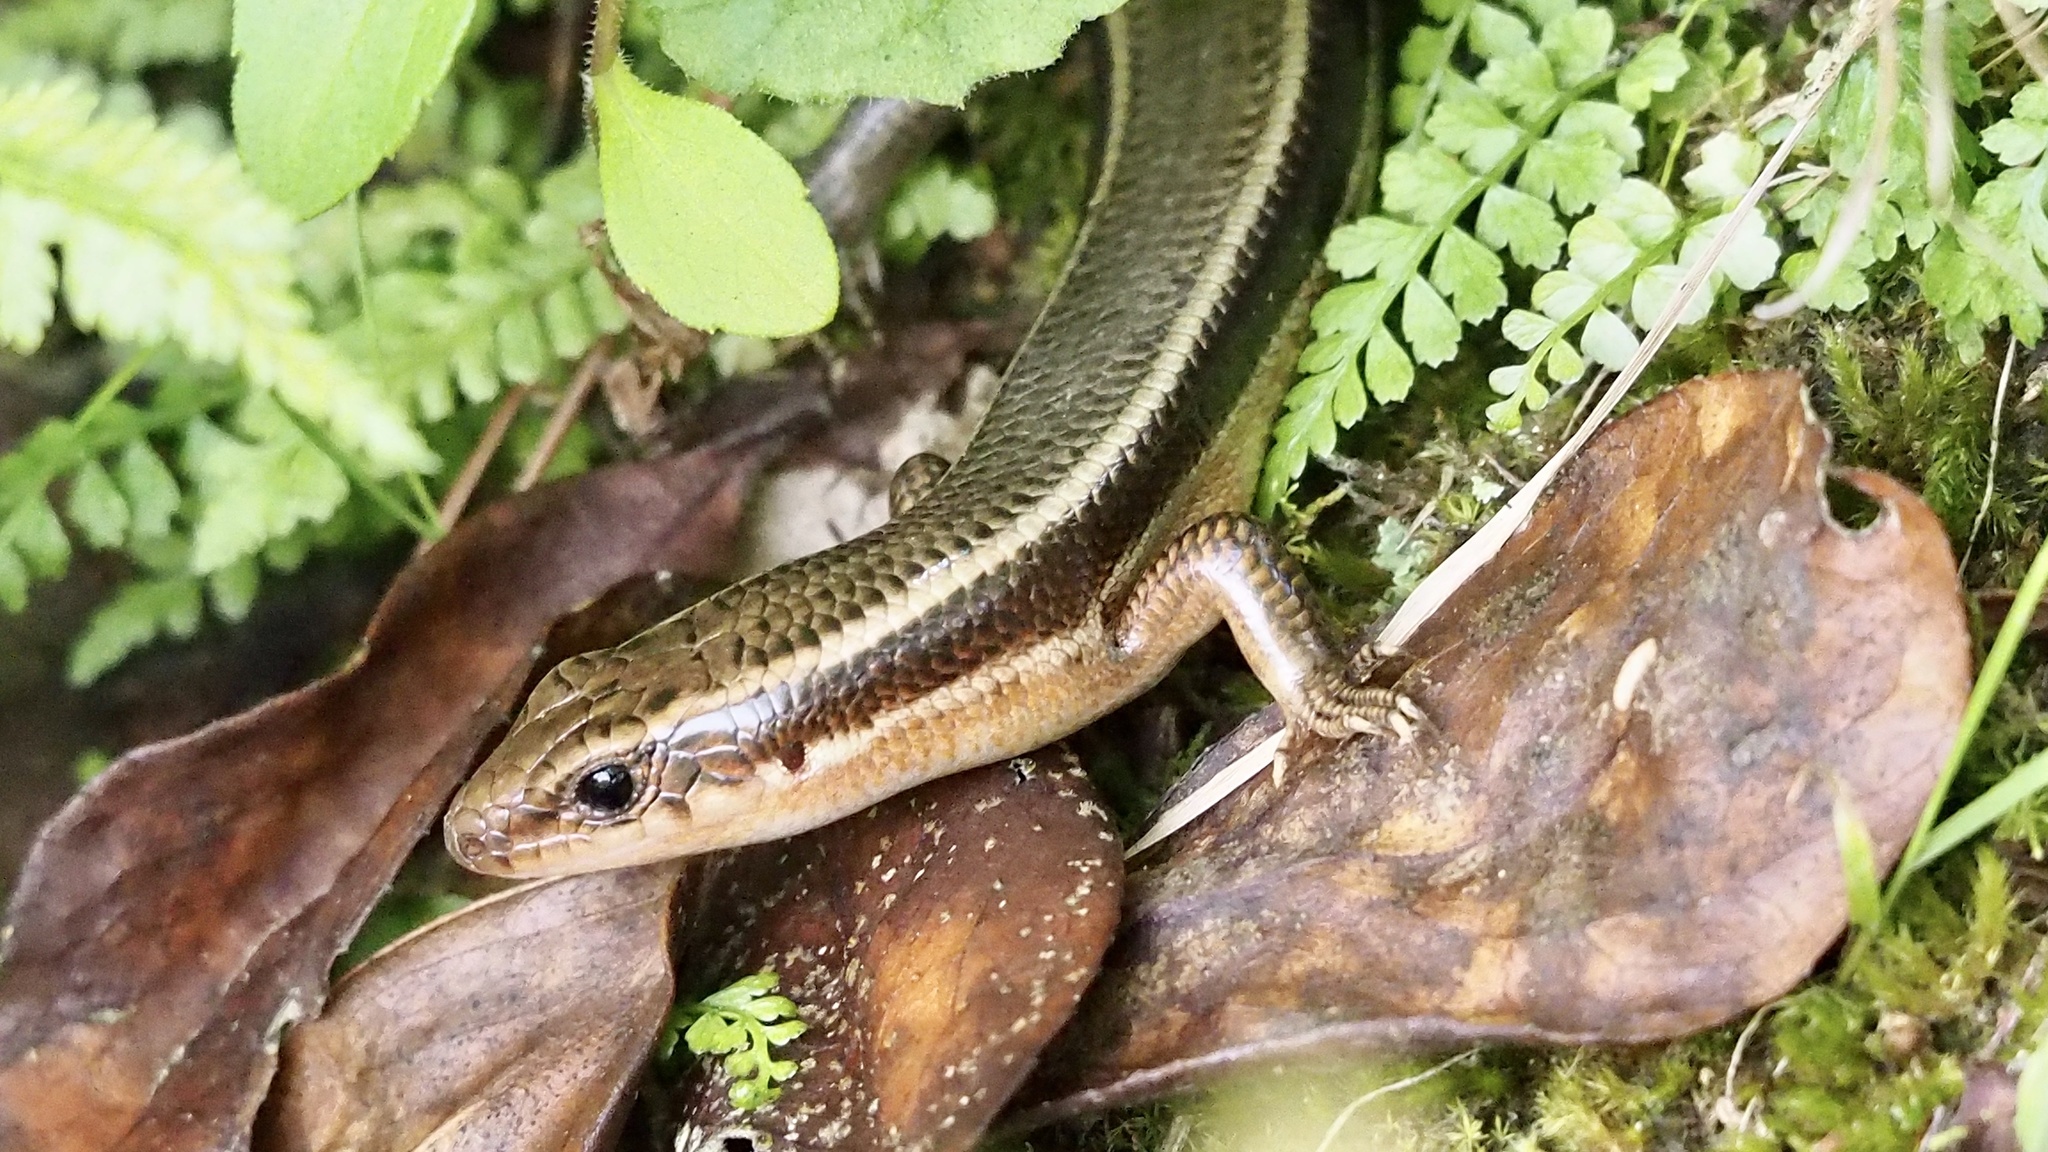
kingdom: Animalia
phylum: Chordata
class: Squamata
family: Scincidae
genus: Plestiodon
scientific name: Plestiodon japonicus
